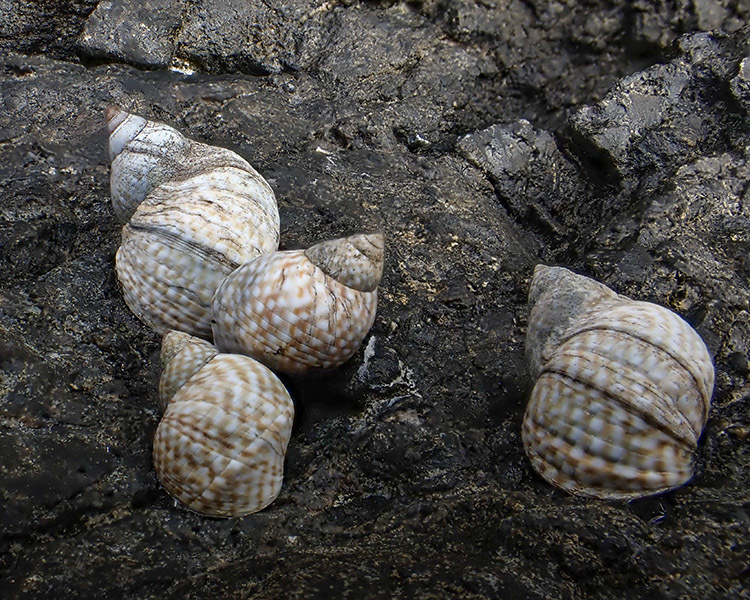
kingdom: Animalia
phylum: Mollusca
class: Gastropoda
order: Littorinimorpha
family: Littorinidae
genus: Echinolittorina
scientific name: Echinolittorina punctata
